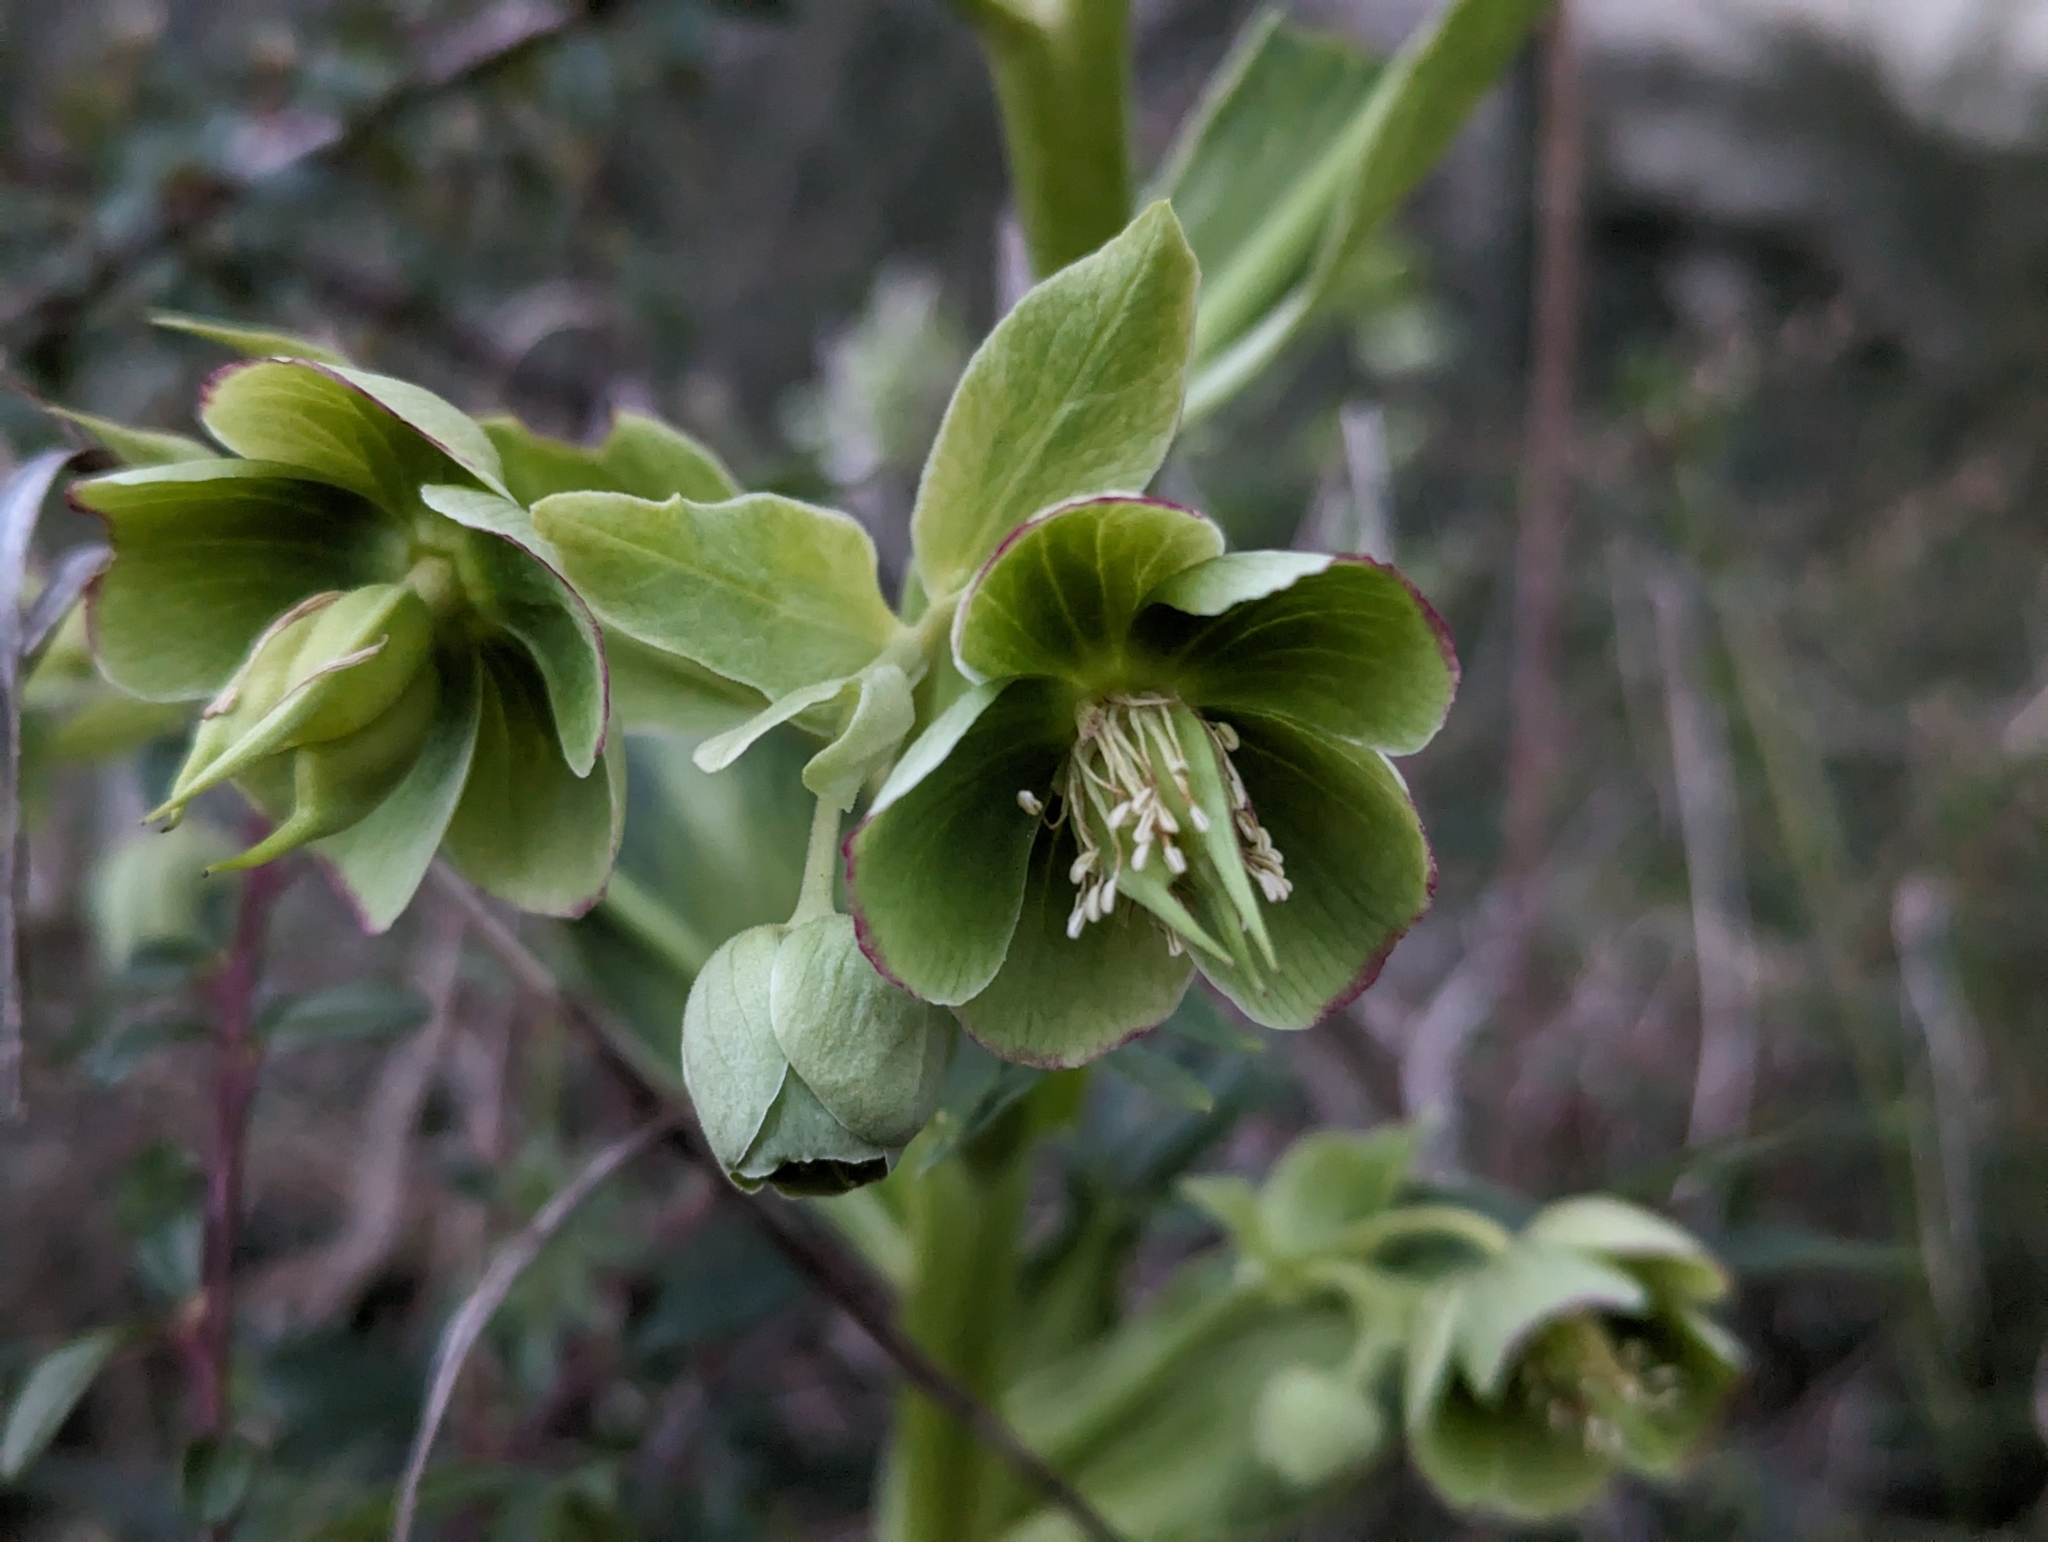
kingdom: Plantae
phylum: Tracheophyta
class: Magnoliopsida
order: Ranunculales
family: Ranunculaceae
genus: Helleborus
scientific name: Helleborus foetidus
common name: Stinking hellebore
